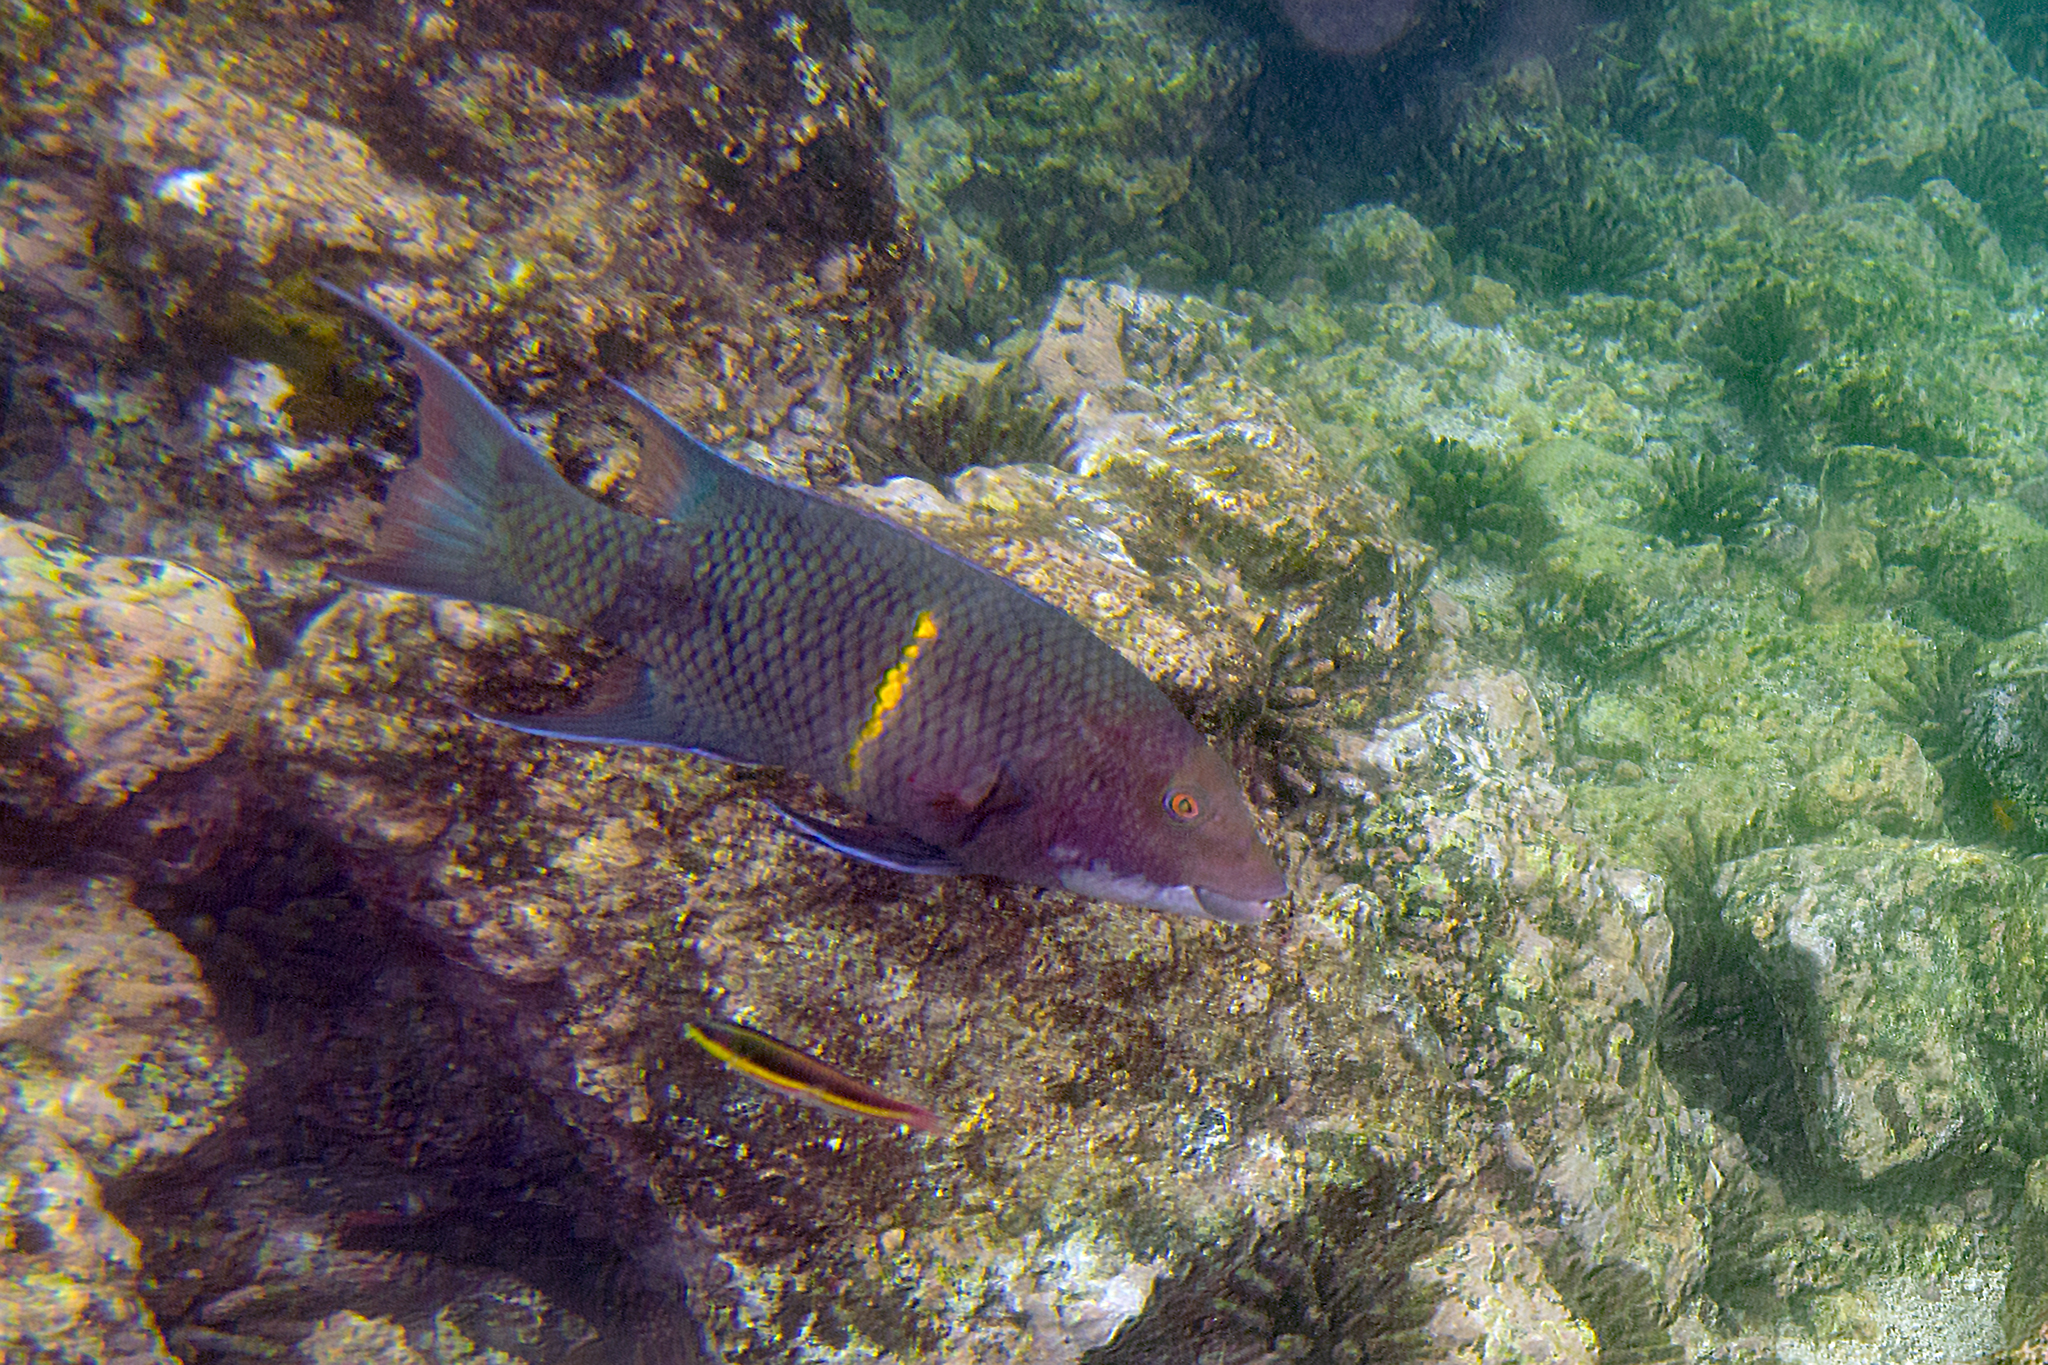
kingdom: Animalia
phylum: Chordata
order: Perciformes
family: Labridae
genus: Bodianus
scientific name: Bodianus diplotaenia
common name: Mexican hogfish
